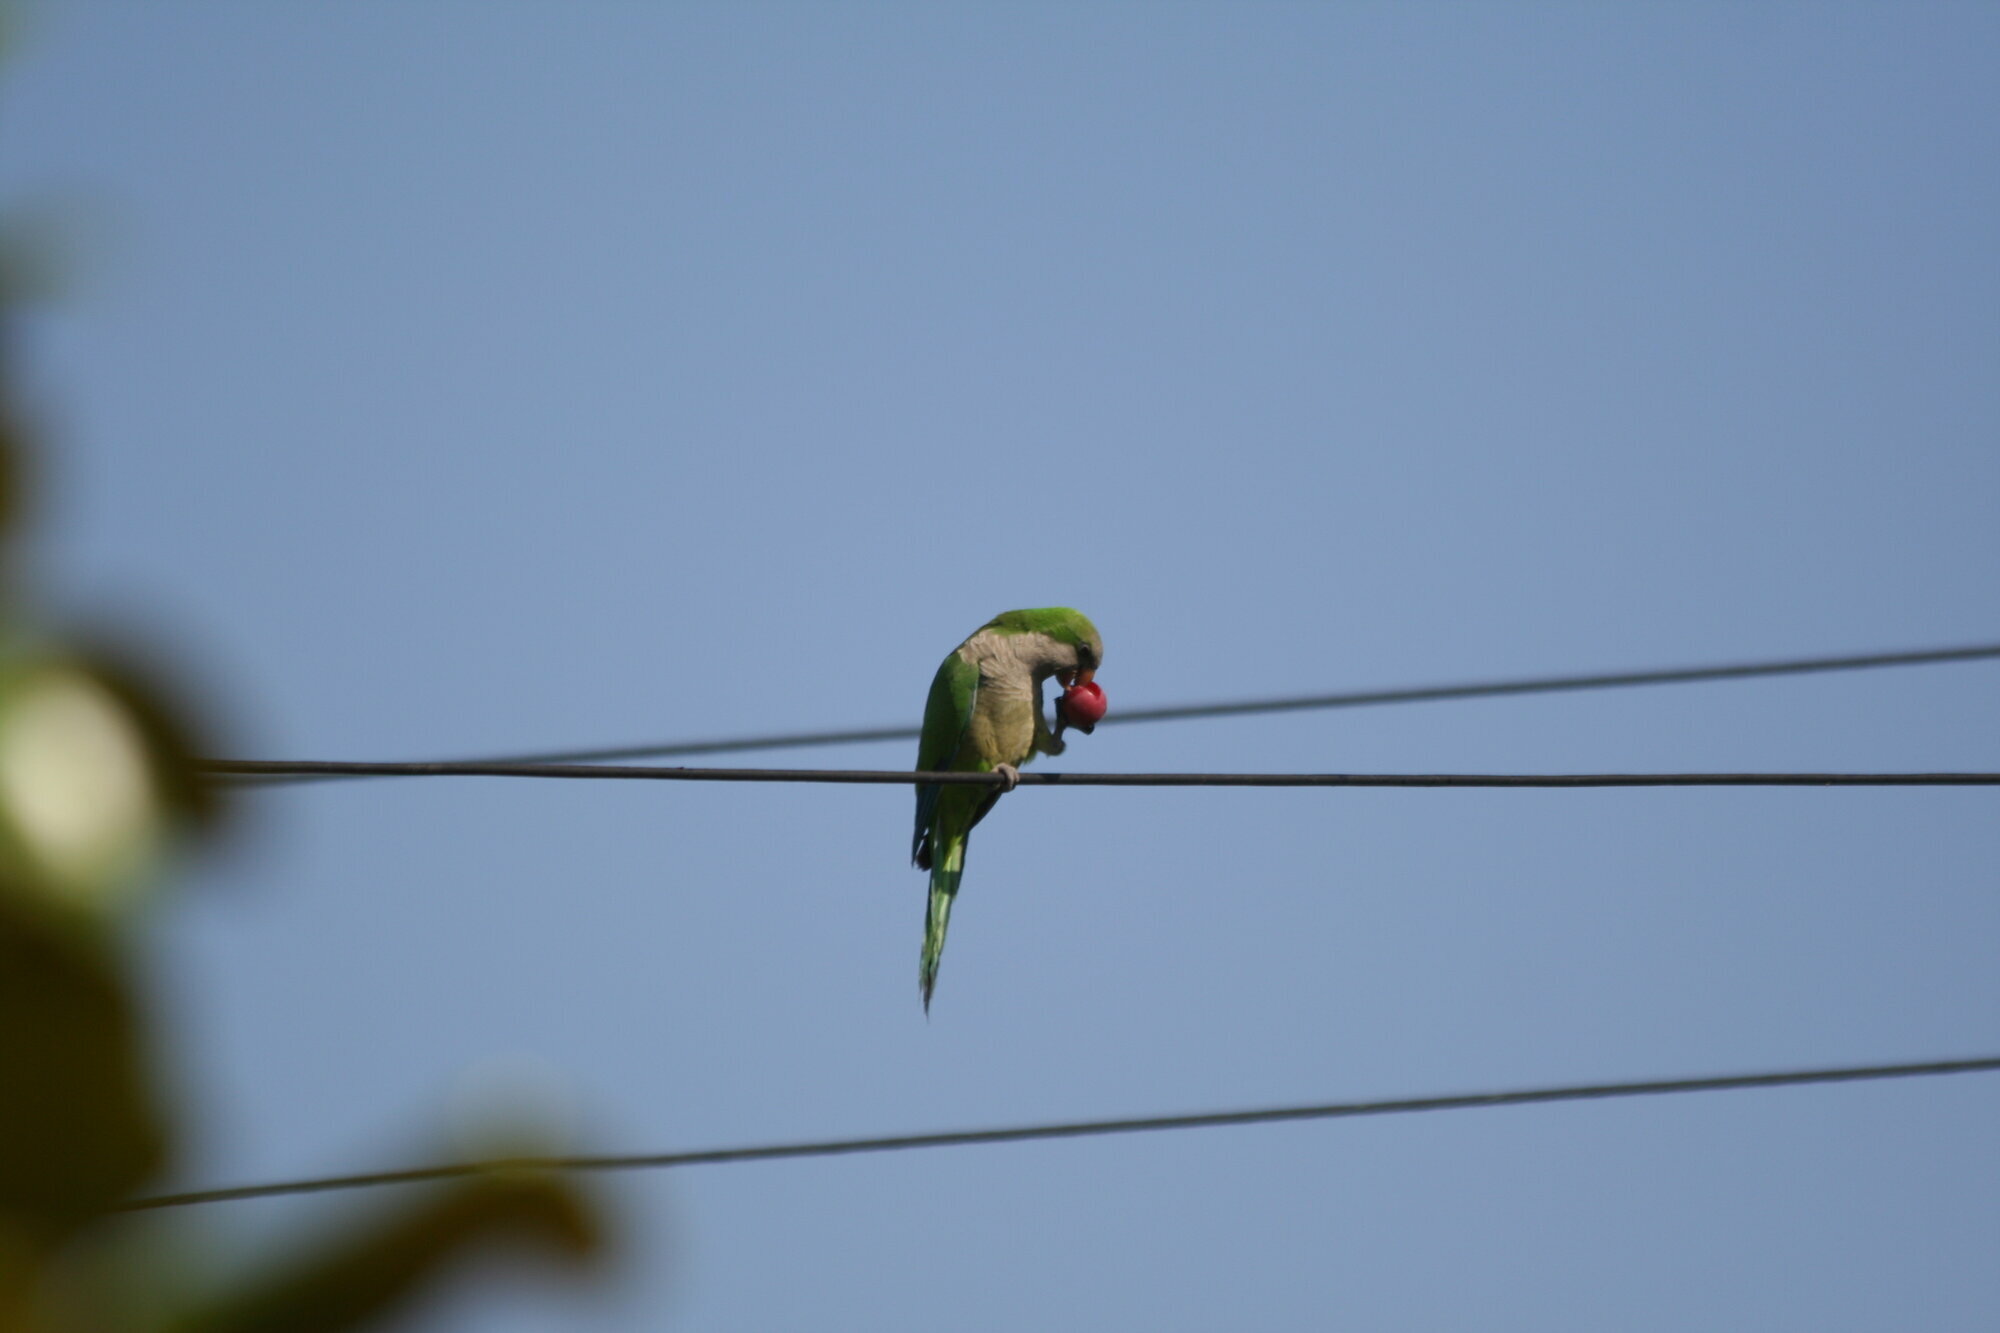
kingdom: Animalia
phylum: Chordata
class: Aves
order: Psittaciformes
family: Psittacidae
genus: Myiopsitta
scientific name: Myiopsitta monachus
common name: Monk parakeet
